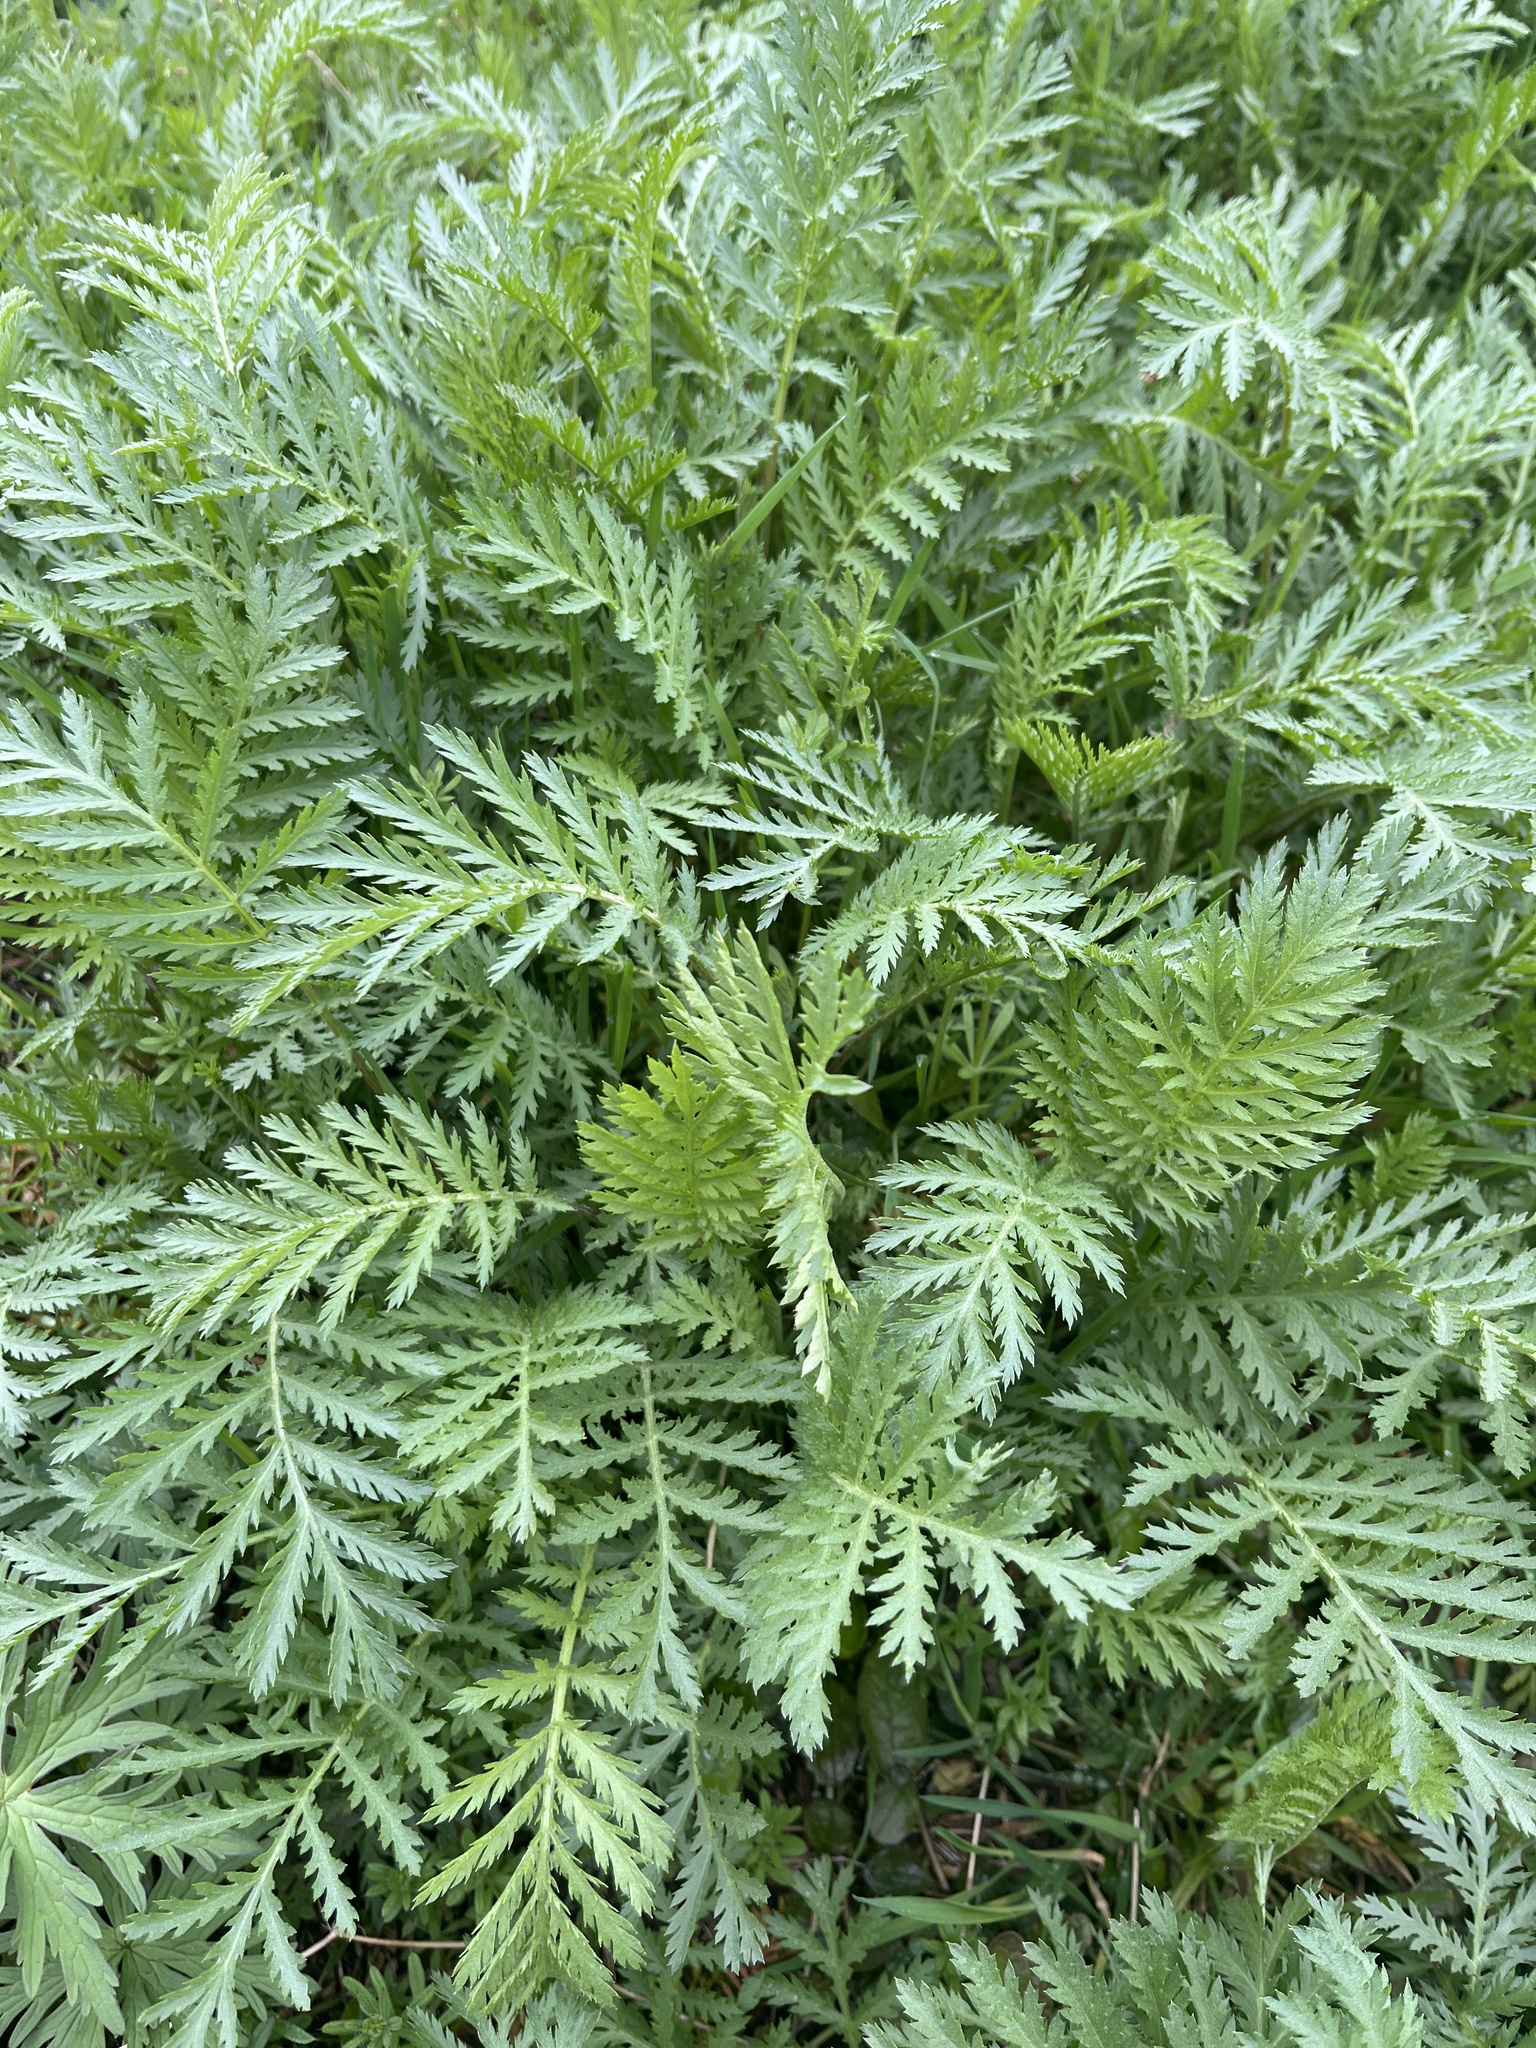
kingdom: Plantae
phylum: Tracheophyta
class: Magnoliopsida
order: Asterales
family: Asteraceae
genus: Tanacetum
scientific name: Tanacetum vulgare
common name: Common tansy
